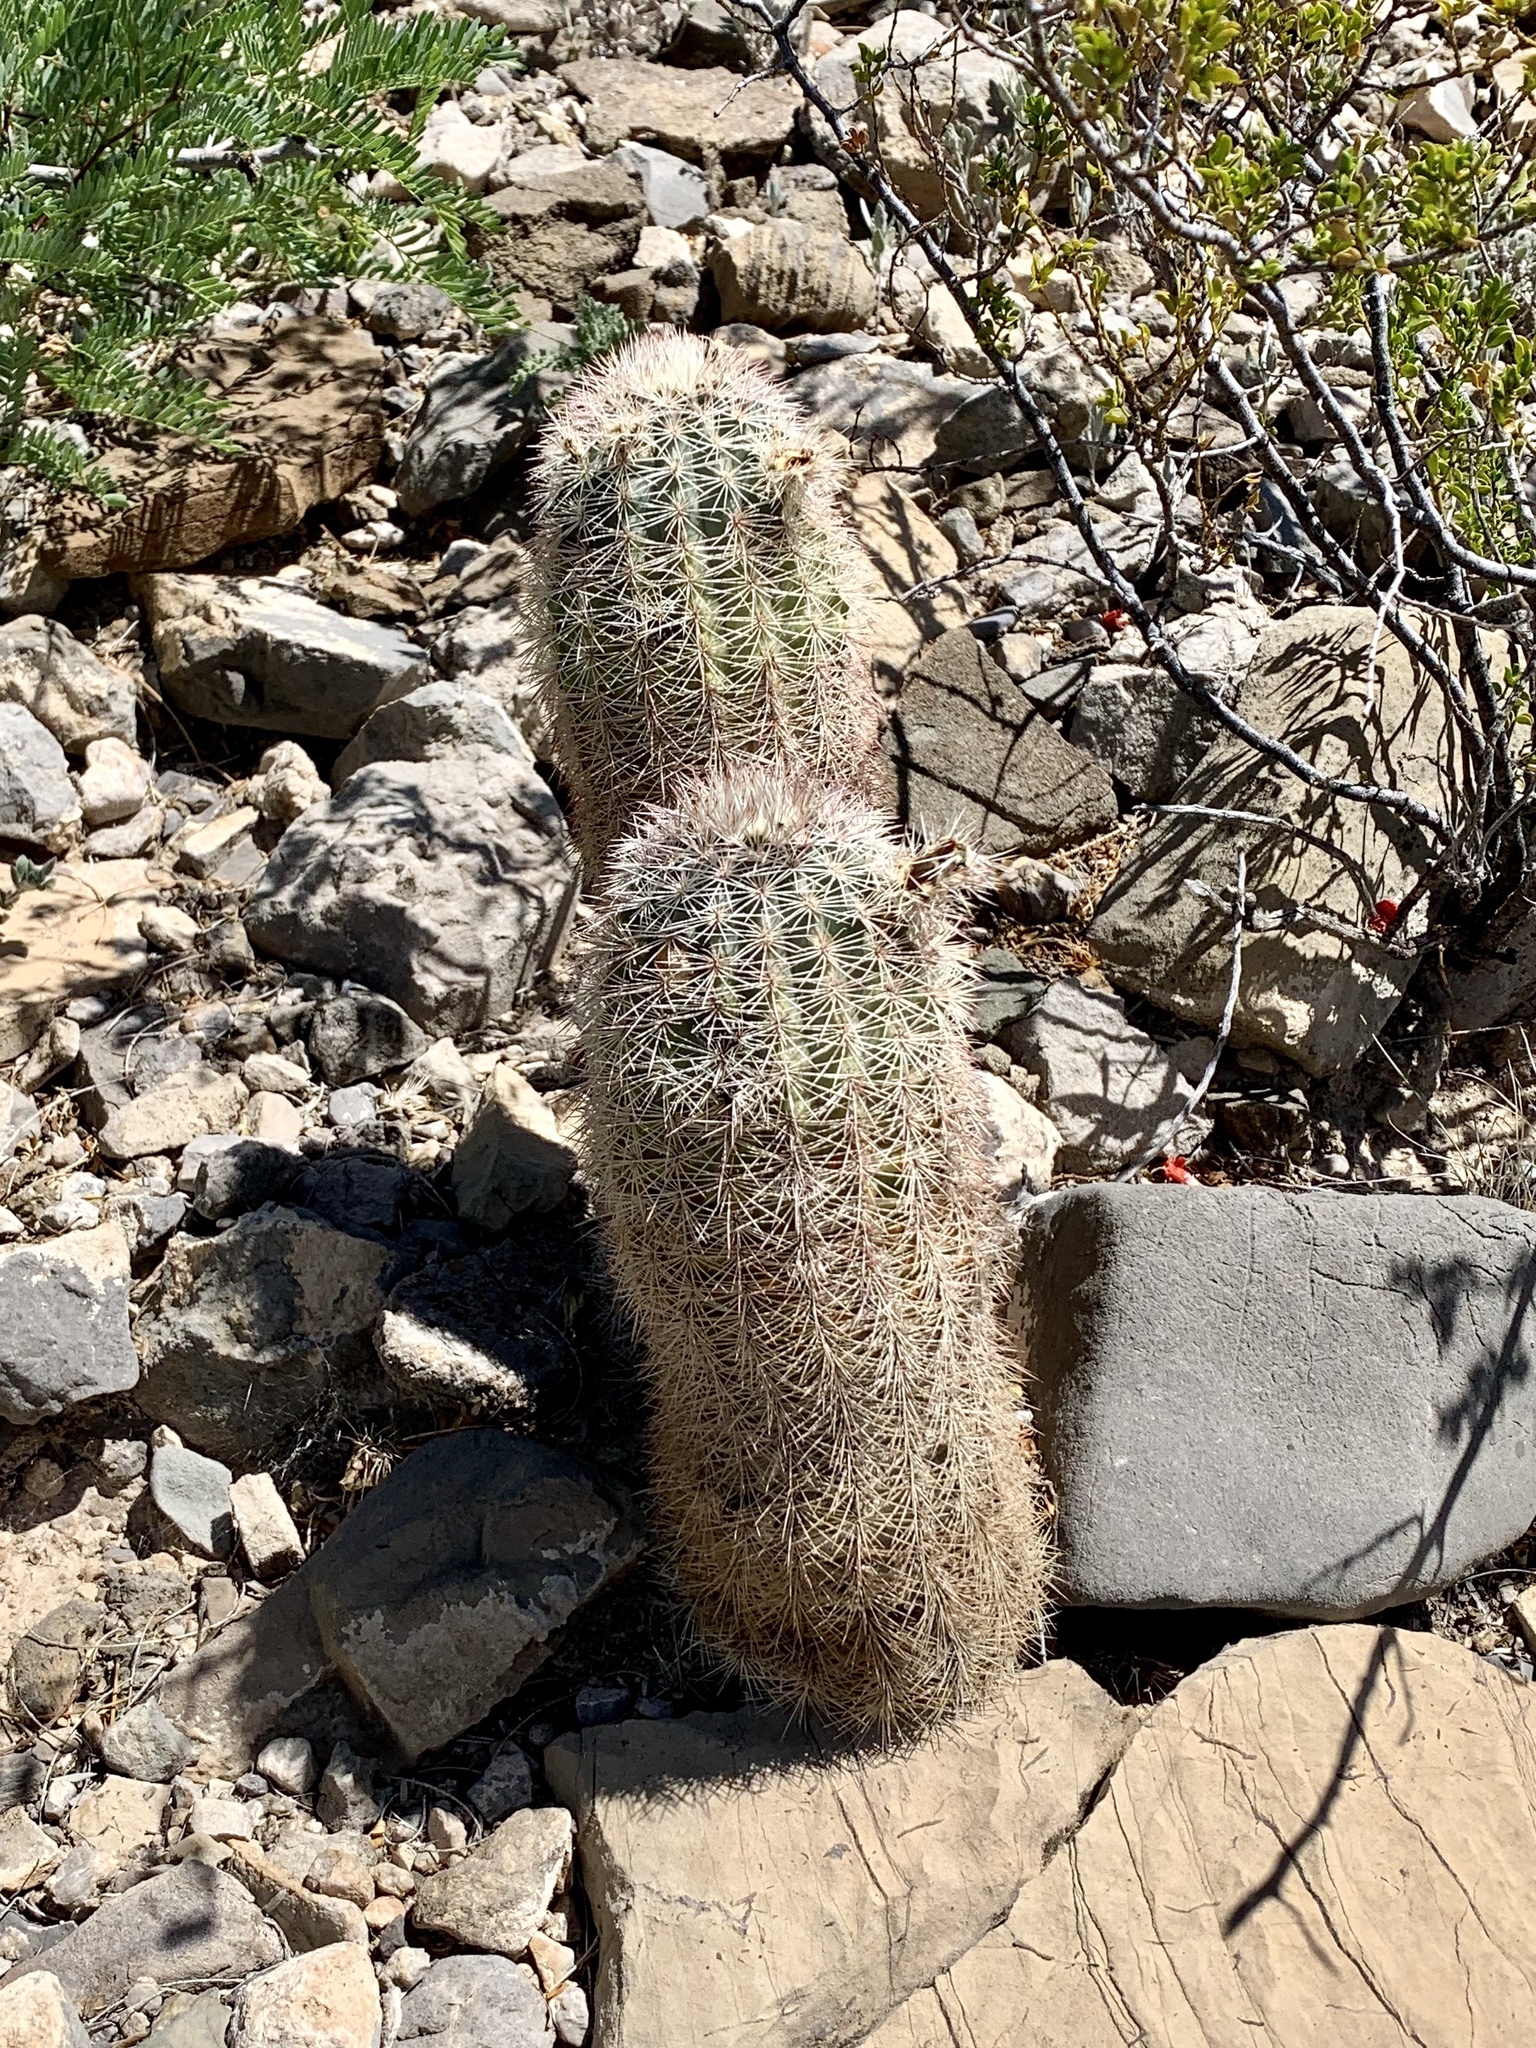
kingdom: Plantae
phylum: Tracheophyta
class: Magnoliopsida
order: Caryophyllales
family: Cactaceae
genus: Echinocereus
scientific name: Echinocereus dasyacanthus
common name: Spiny hedgehog cactus
